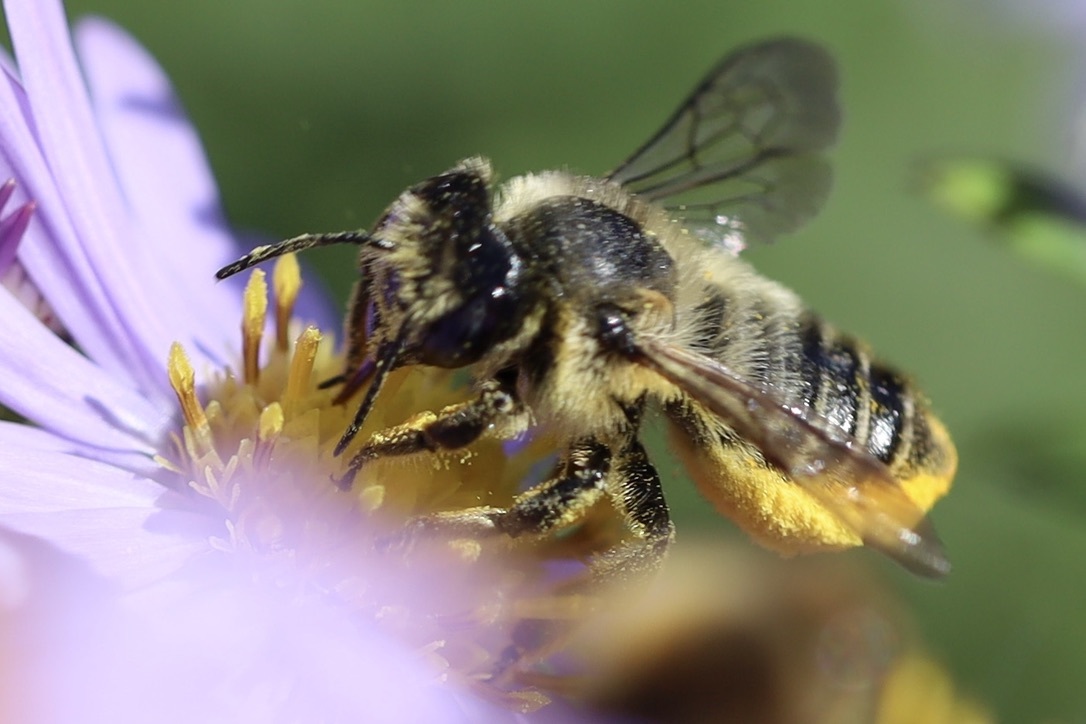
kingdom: Animalia
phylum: Arthropoda
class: Insecta
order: Hymenoptera
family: Megachilidae
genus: Megachile
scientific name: Megachile perihirta
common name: Western leafcutter
